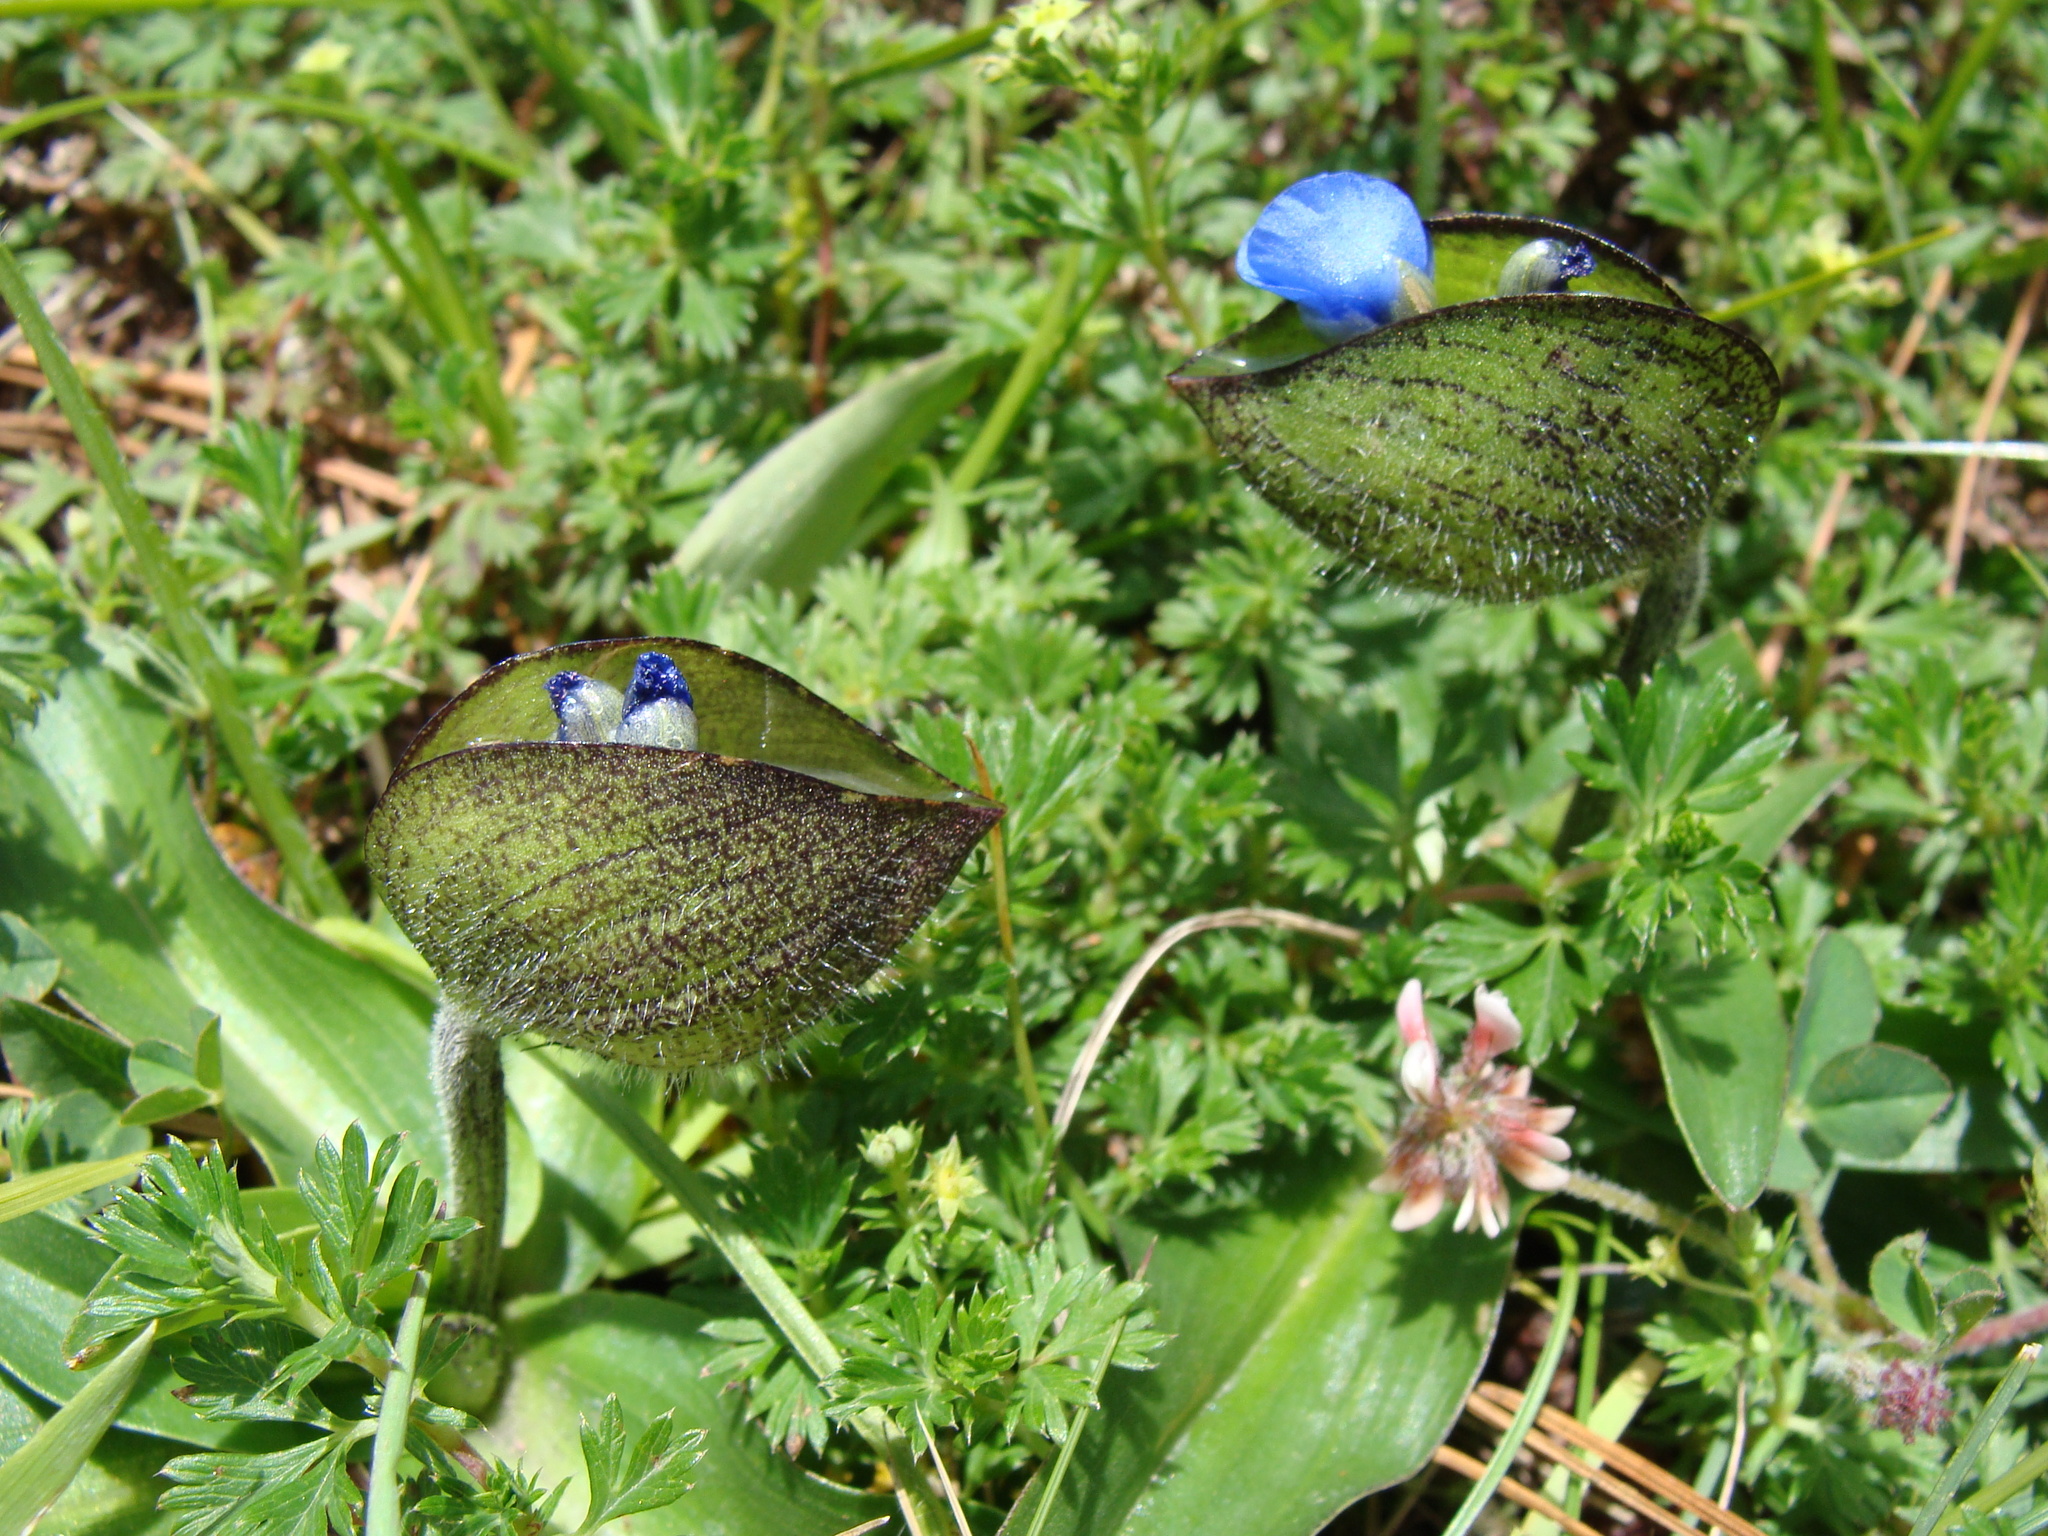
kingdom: Plantae
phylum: Tracheophyta
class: Liliopsida
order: Commelinales
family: Commelinaceae
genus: Commelina
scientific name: Commelina orchioides
